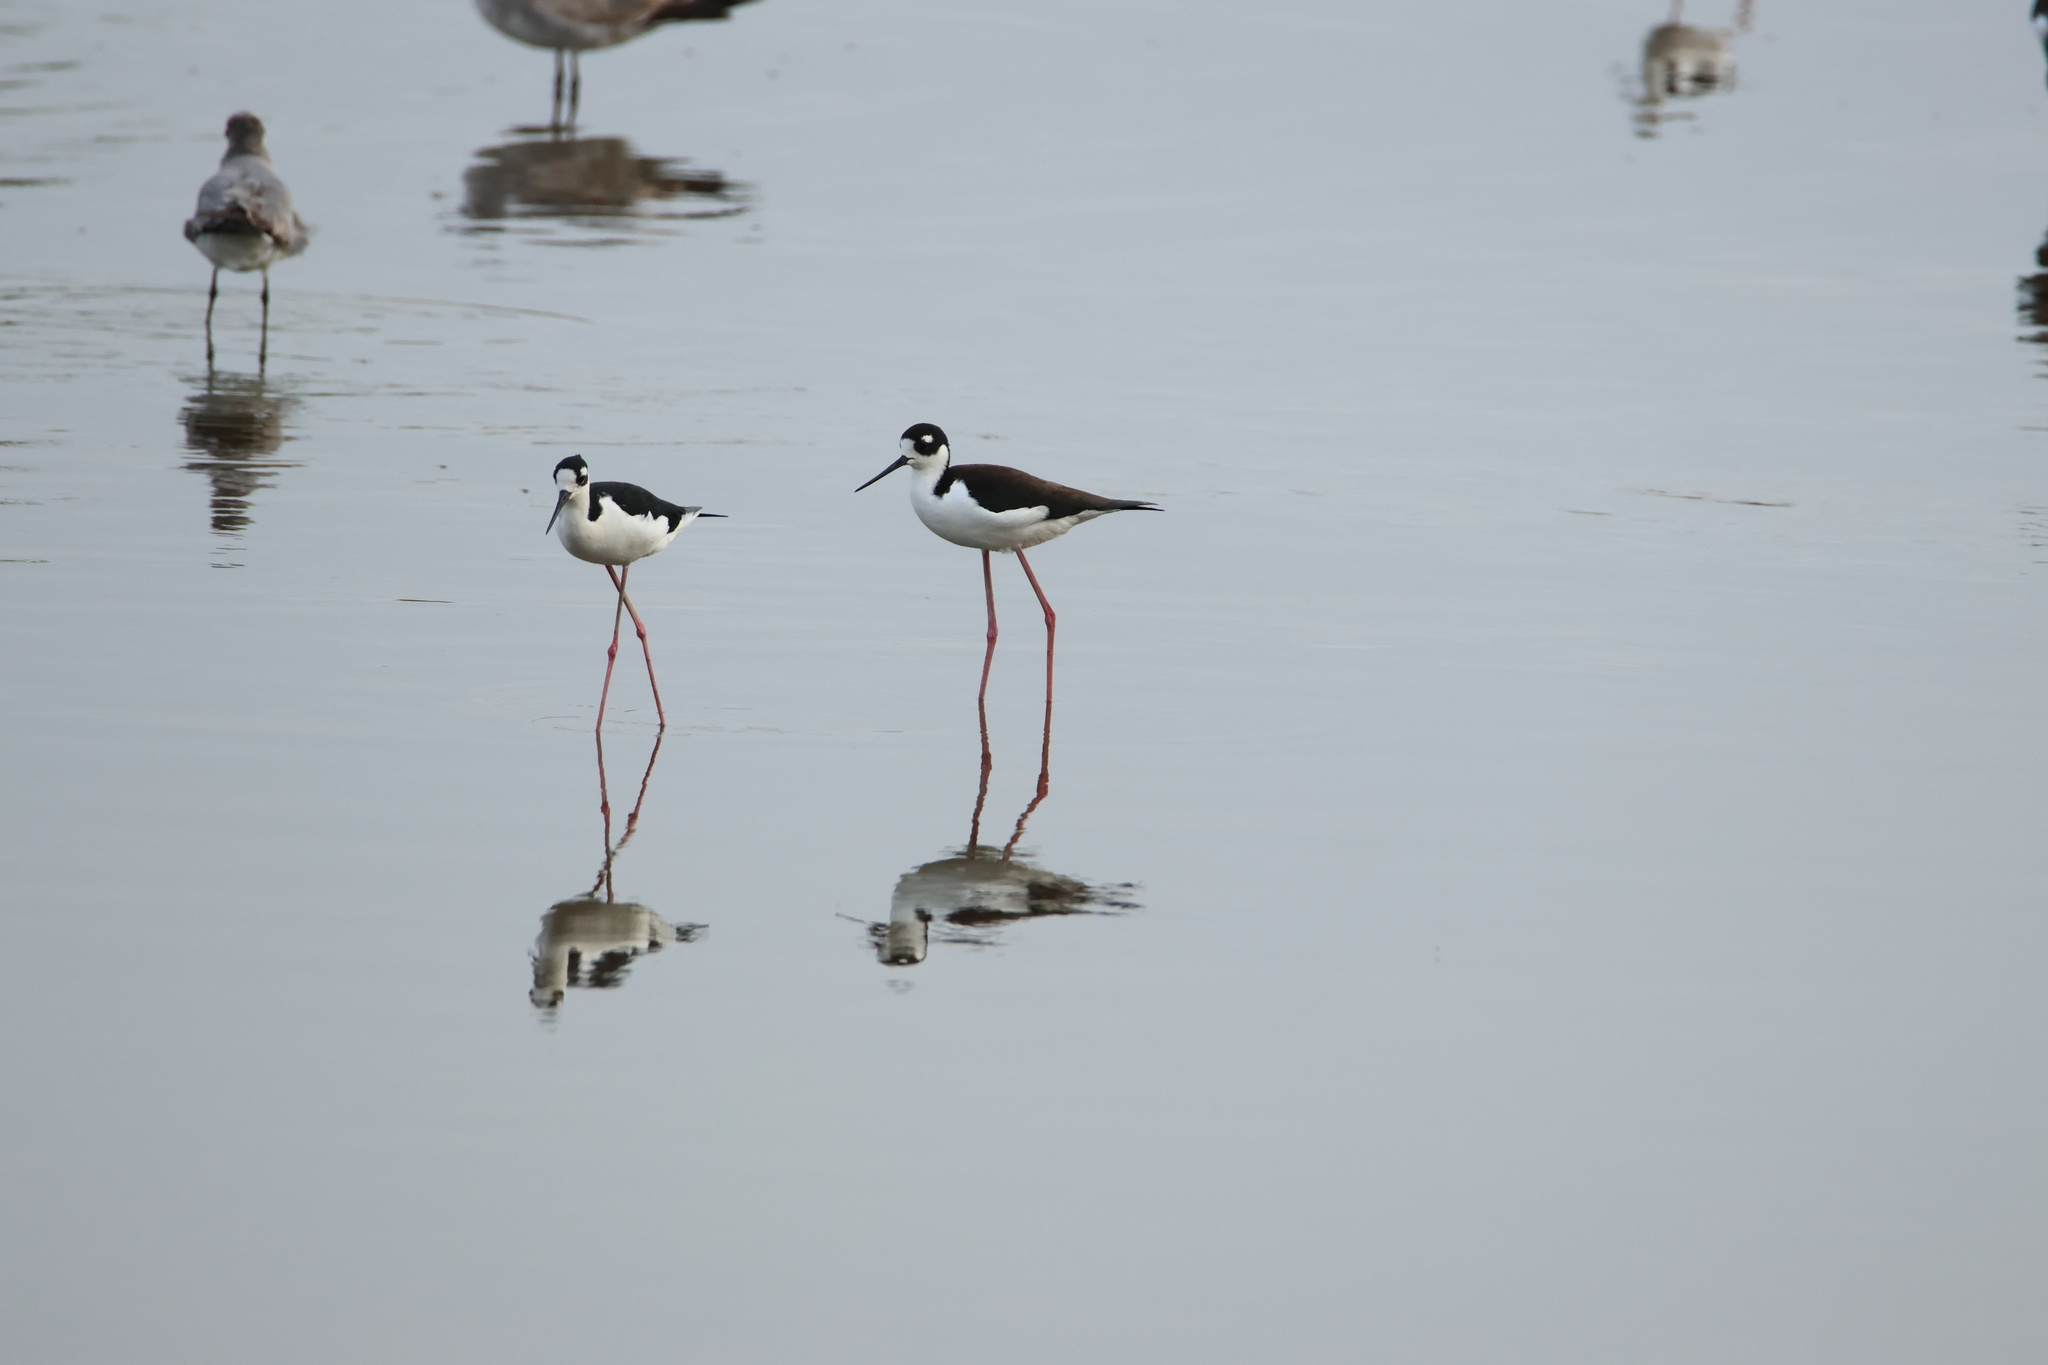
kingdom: Animalia
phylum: Chordata
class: Aves
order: Charadriiformes
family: Recurvirostridae
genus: Himantopus
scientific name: Himantopus mexicanus
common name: Black-necked stilt
